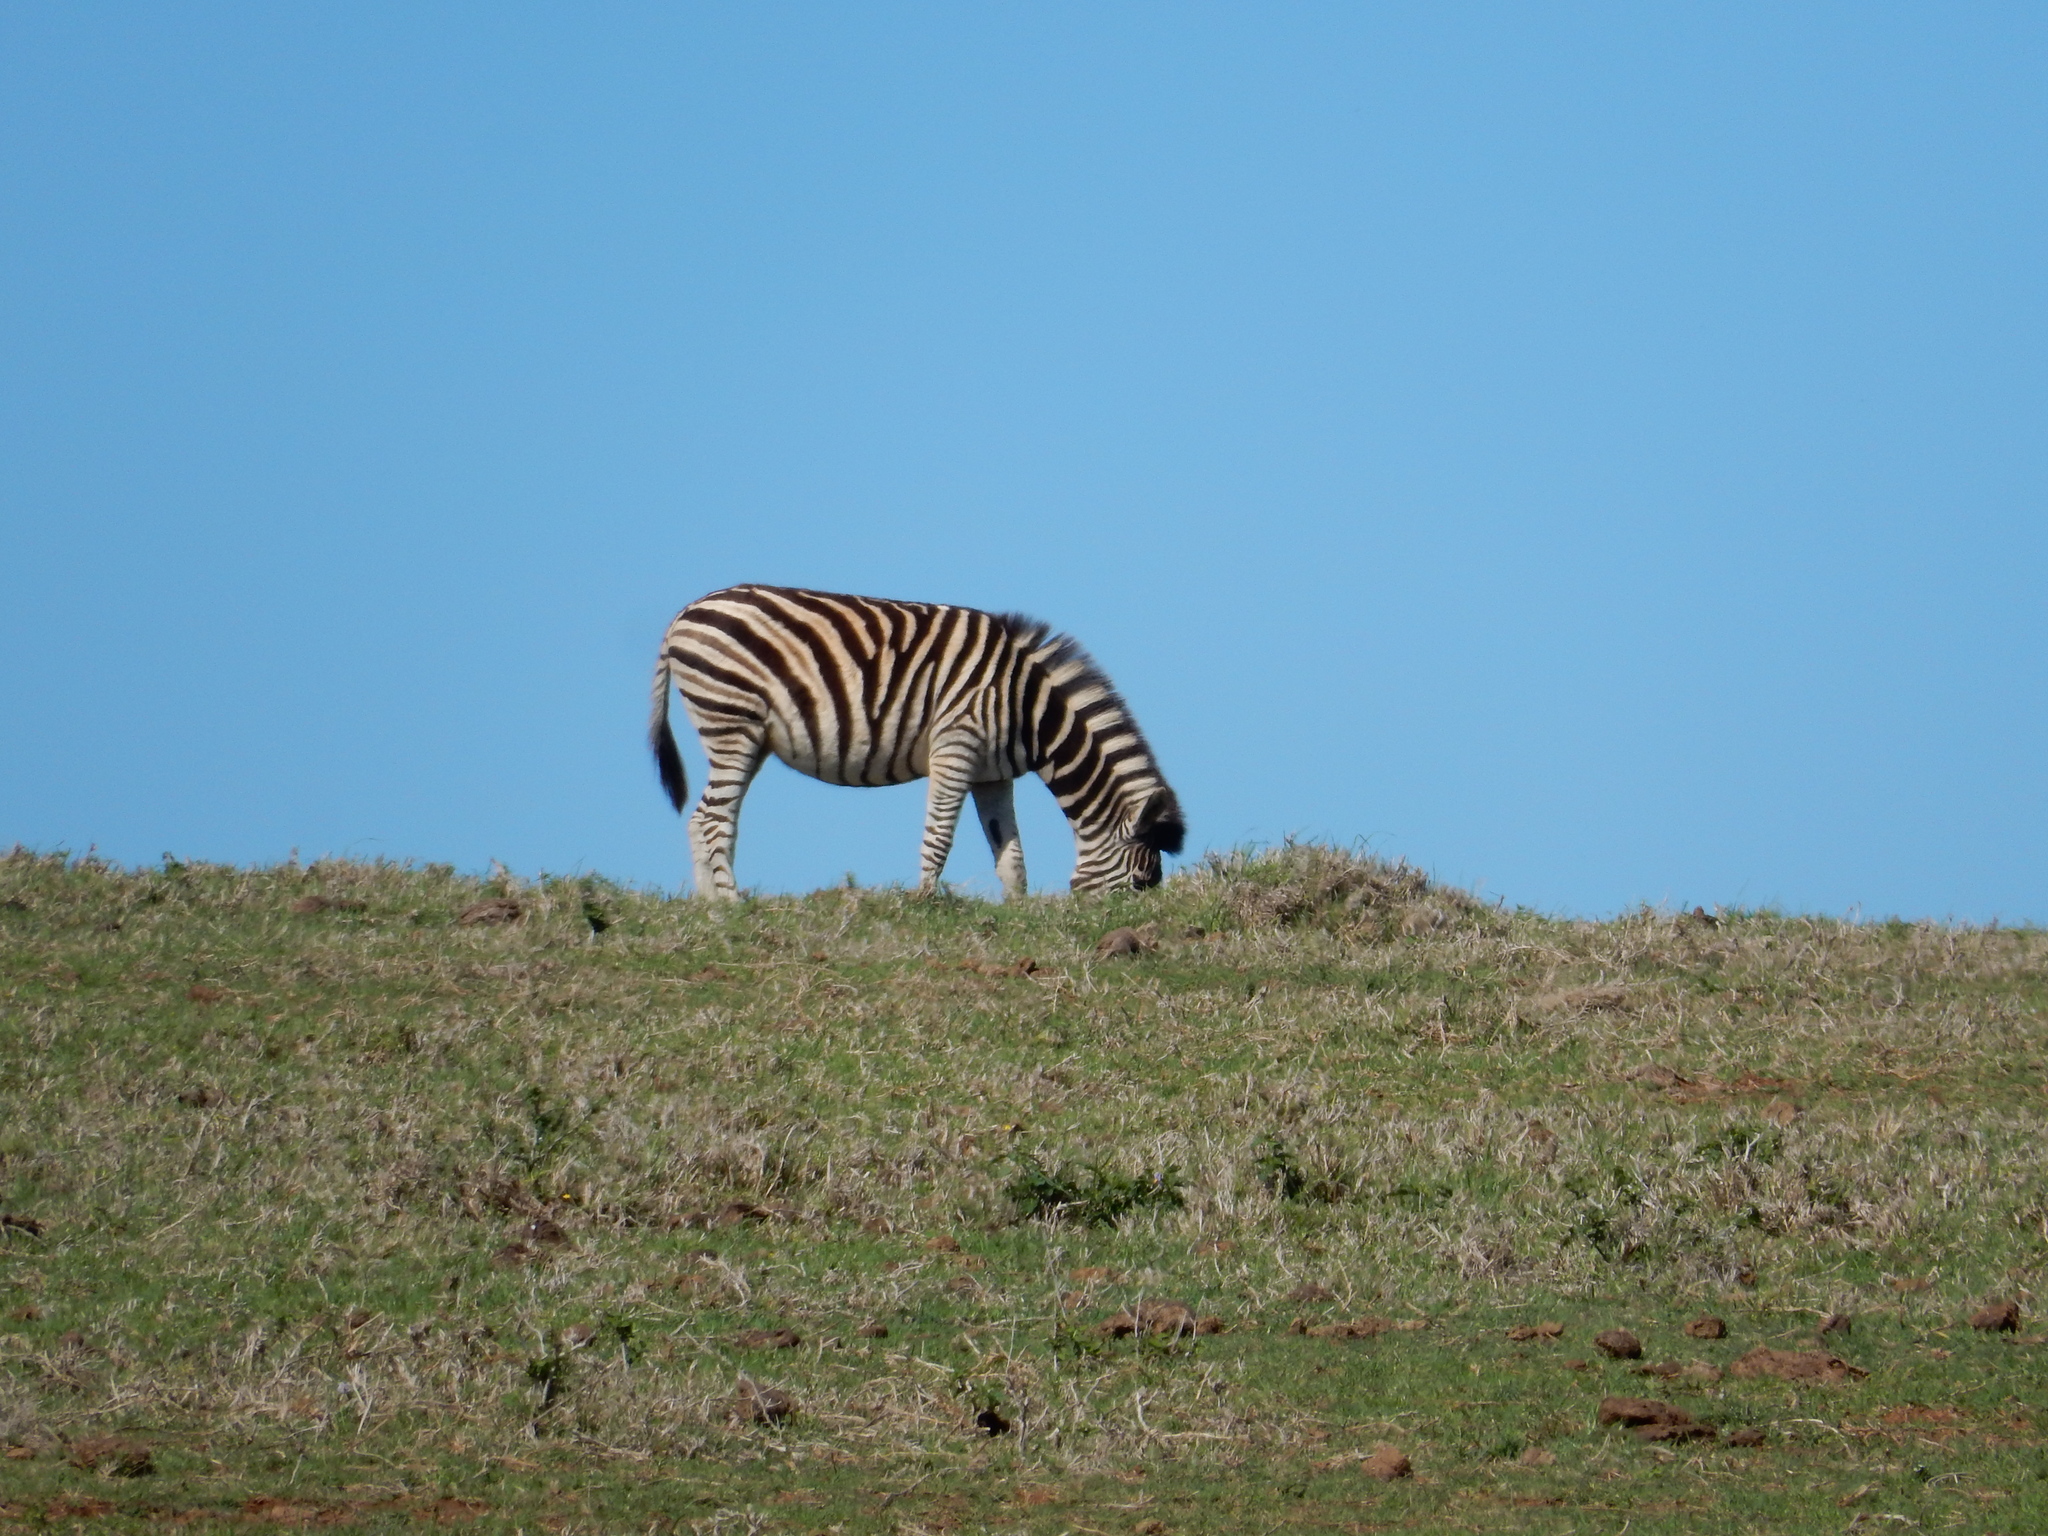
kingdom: Animalia
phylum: Chordata
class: Mammalia
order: Perissodactyla
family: Equidae
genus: Equus
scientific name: Equus quagga
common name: Plains zebra
